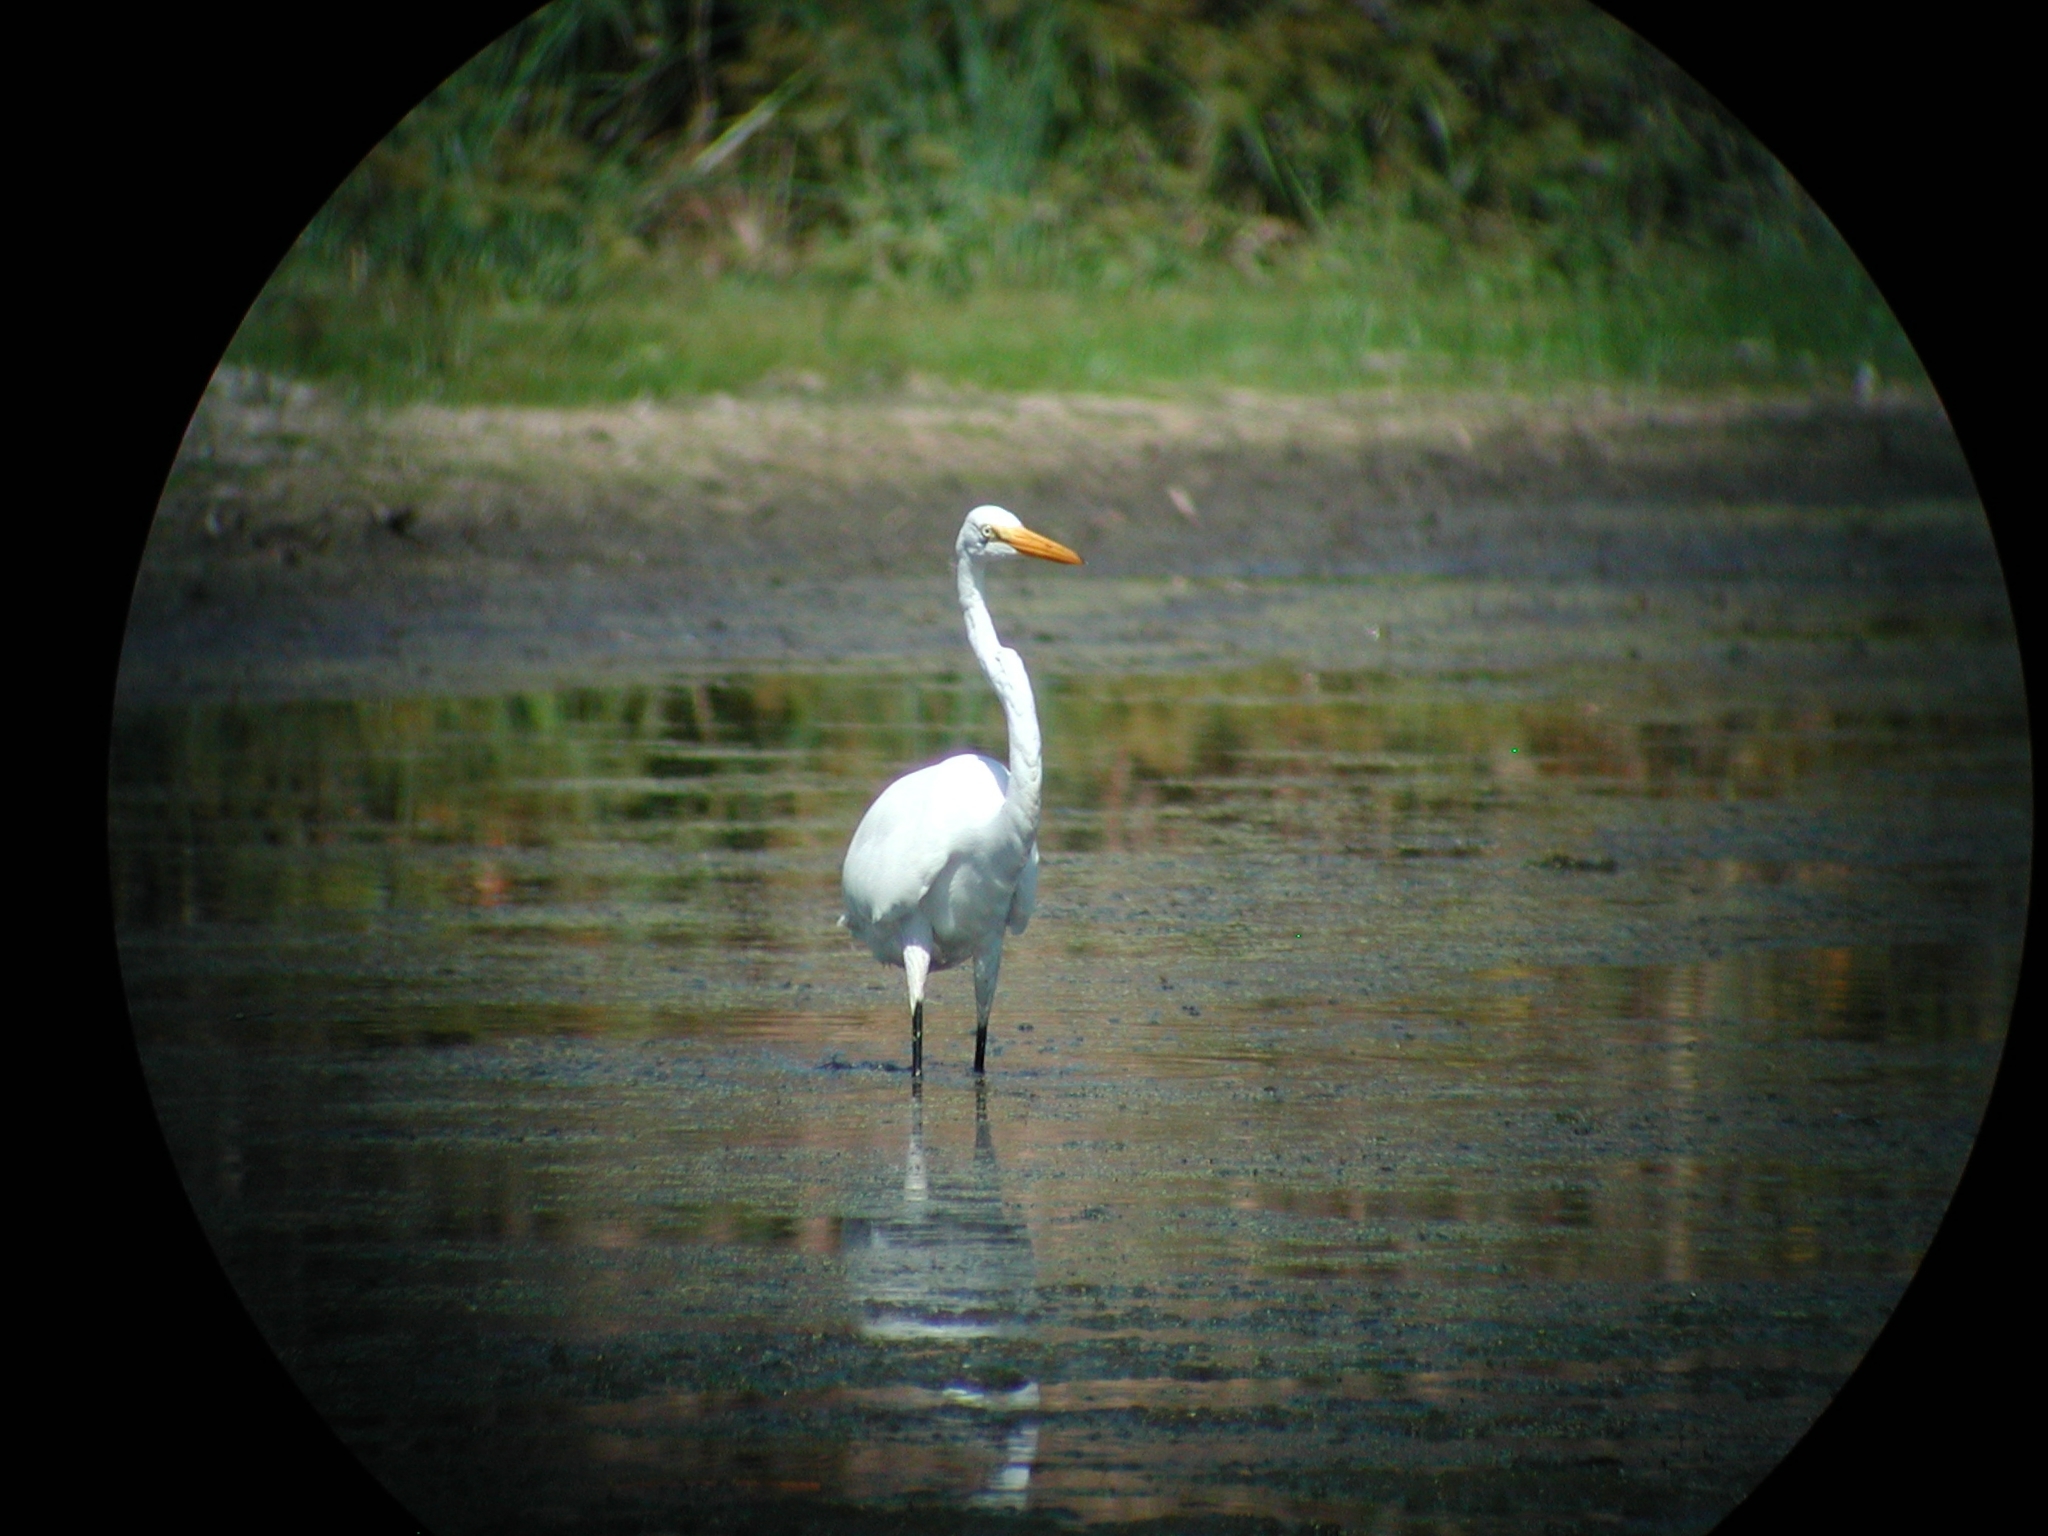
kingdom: Animalia
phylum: Chordata
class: Aves
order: Pelecaniformes
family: Ardeidae
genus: Ardea
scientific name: Ardea alba
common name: Great egret
